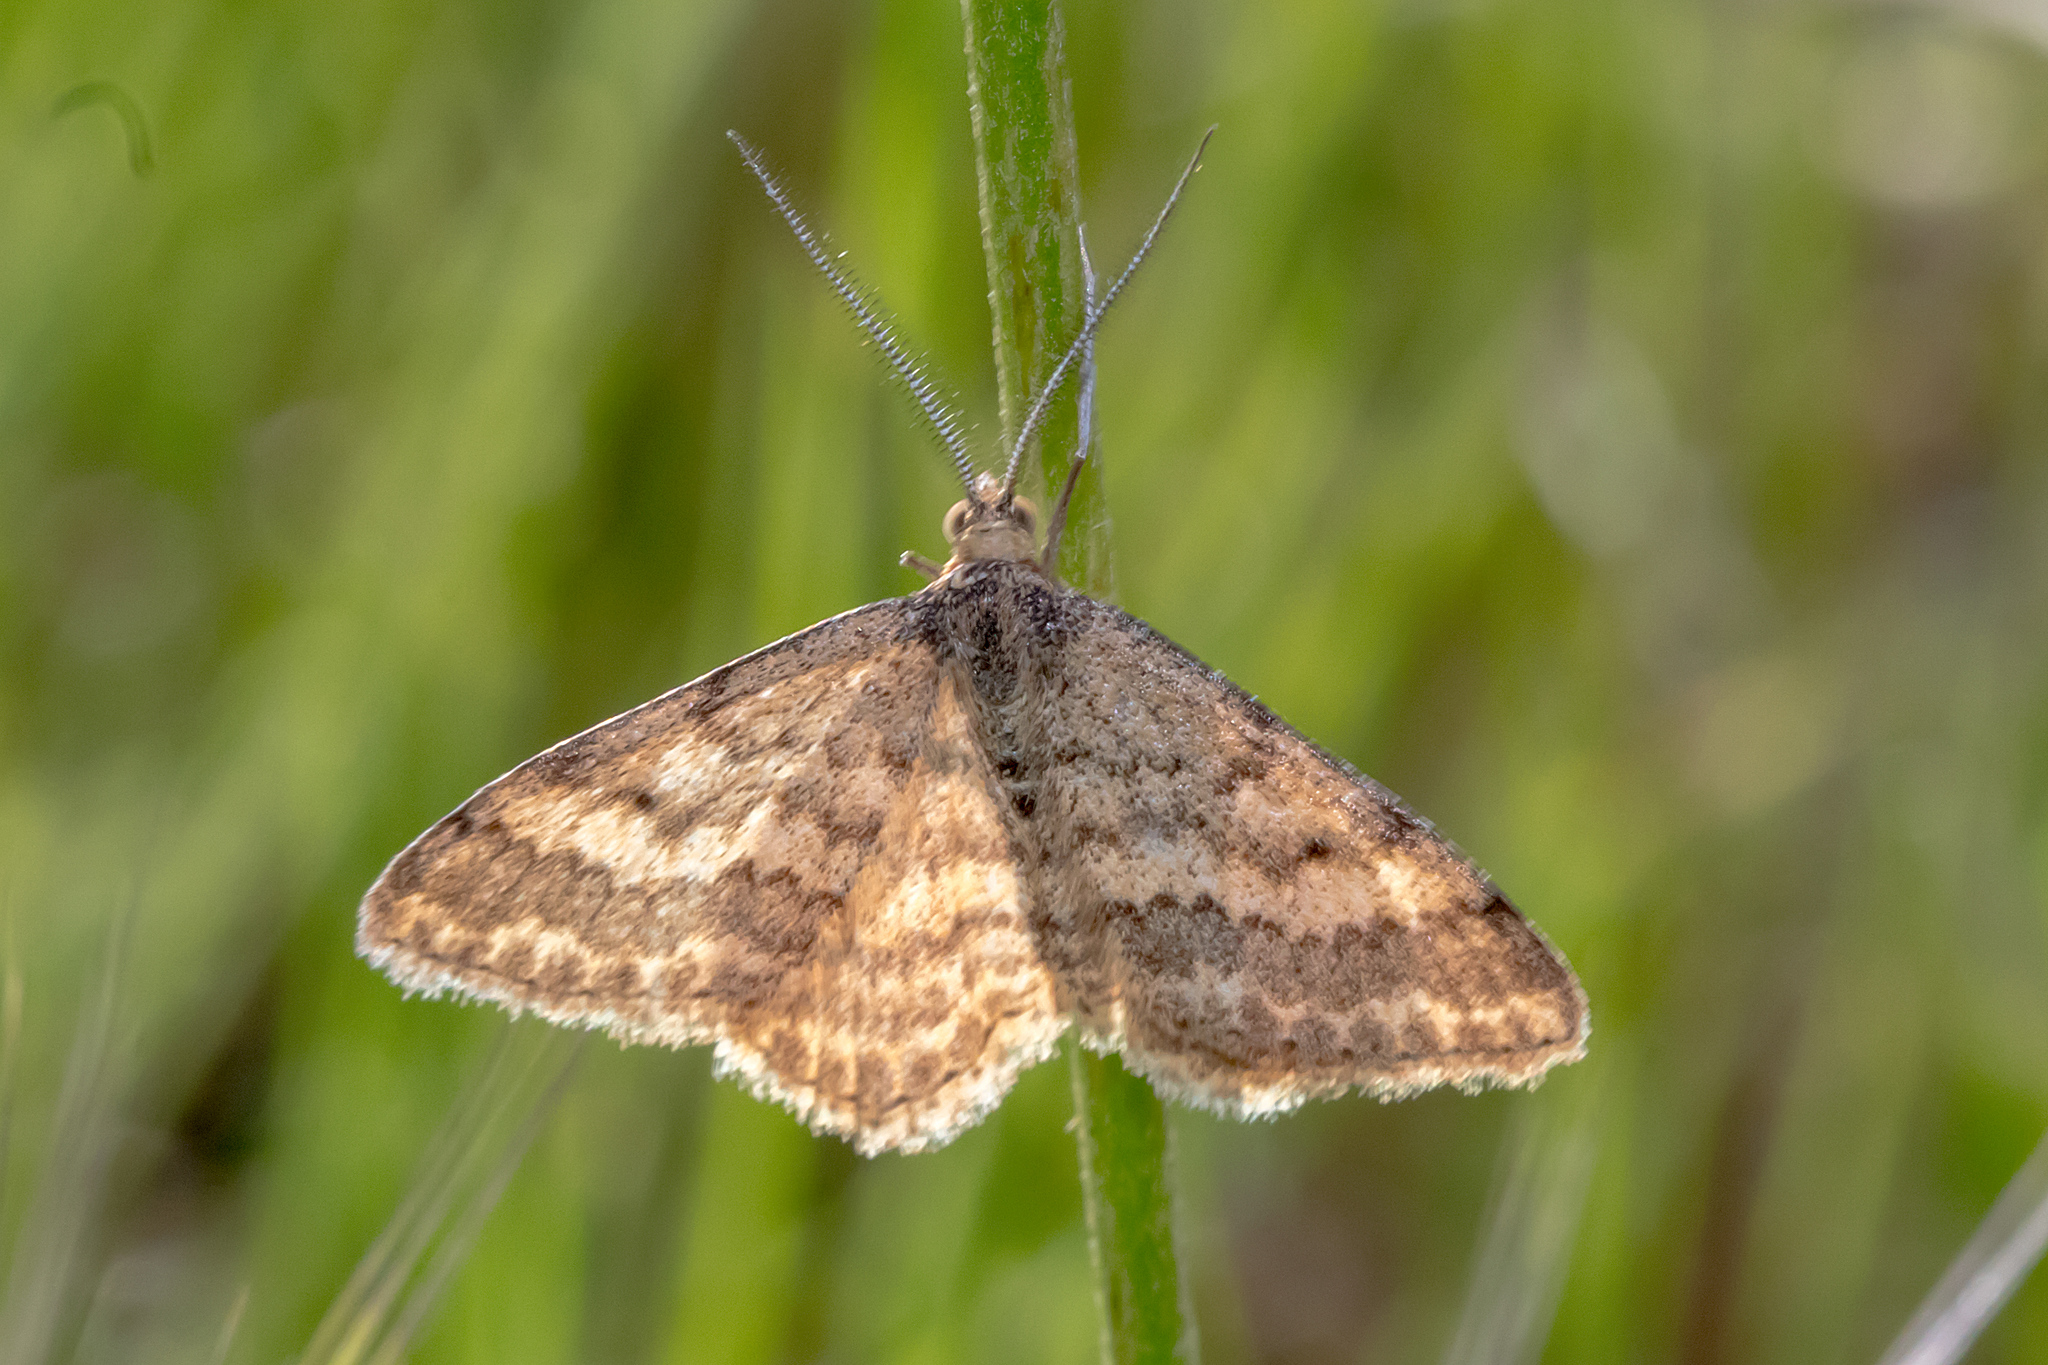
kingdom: Animalia
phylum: Arthropoda
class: Insecta
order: Lepidoptera
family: Geometridae
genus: Scopula
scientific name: Scopula rubraria
